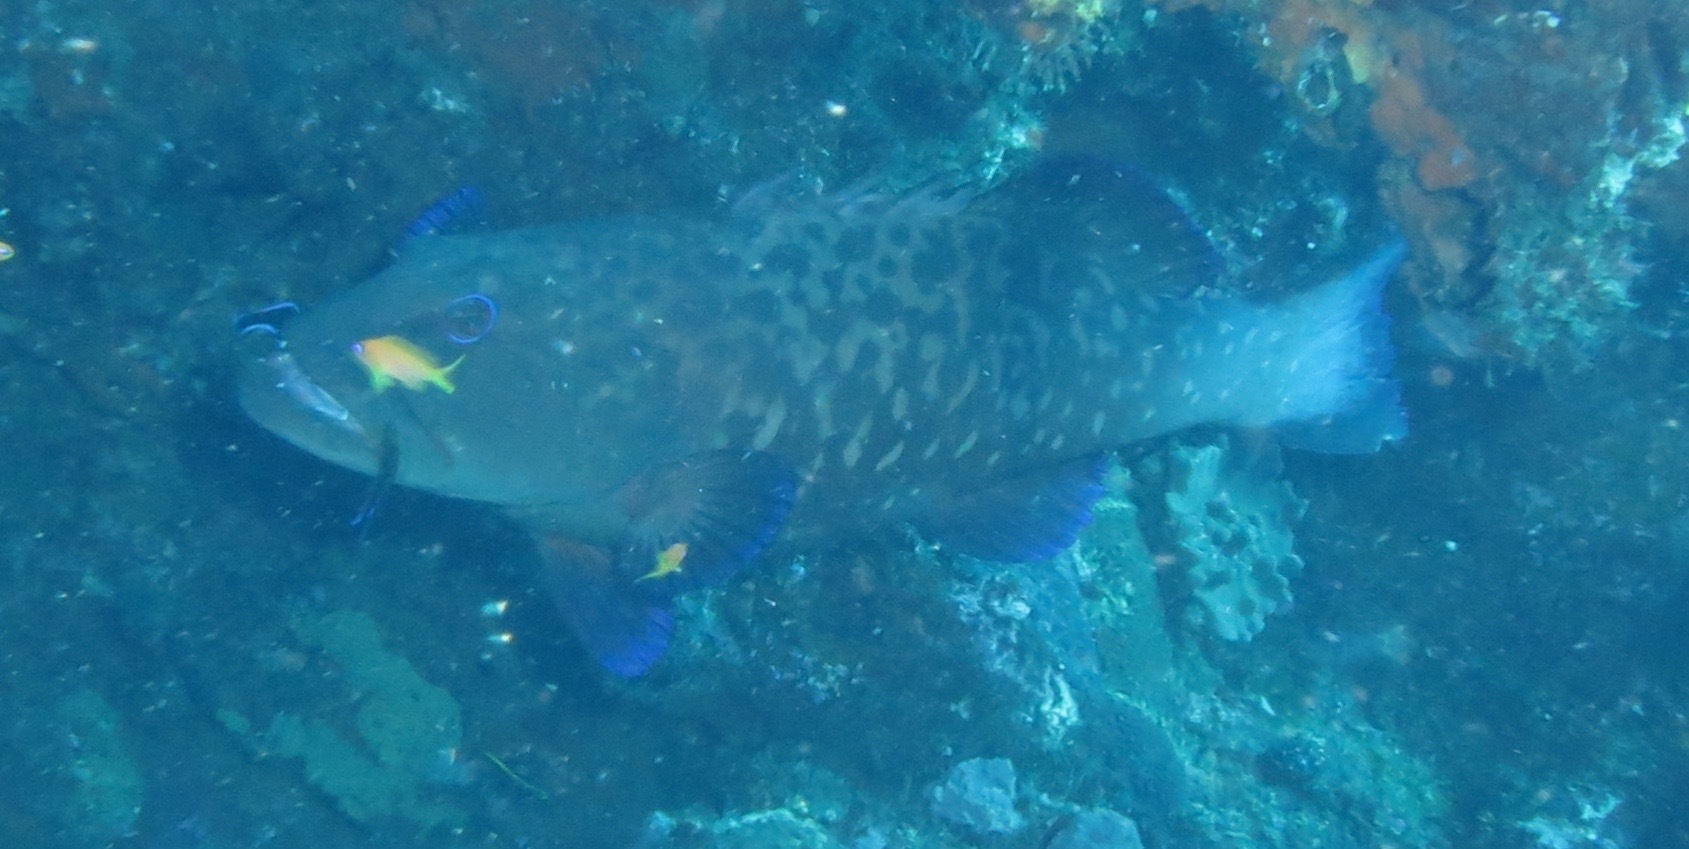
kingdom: Animalia
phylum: Chordata
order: Perciformes
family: Serranidae
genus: Plectropomus
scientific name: Plectropomus punctatus
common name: Marbled coralgrouper
